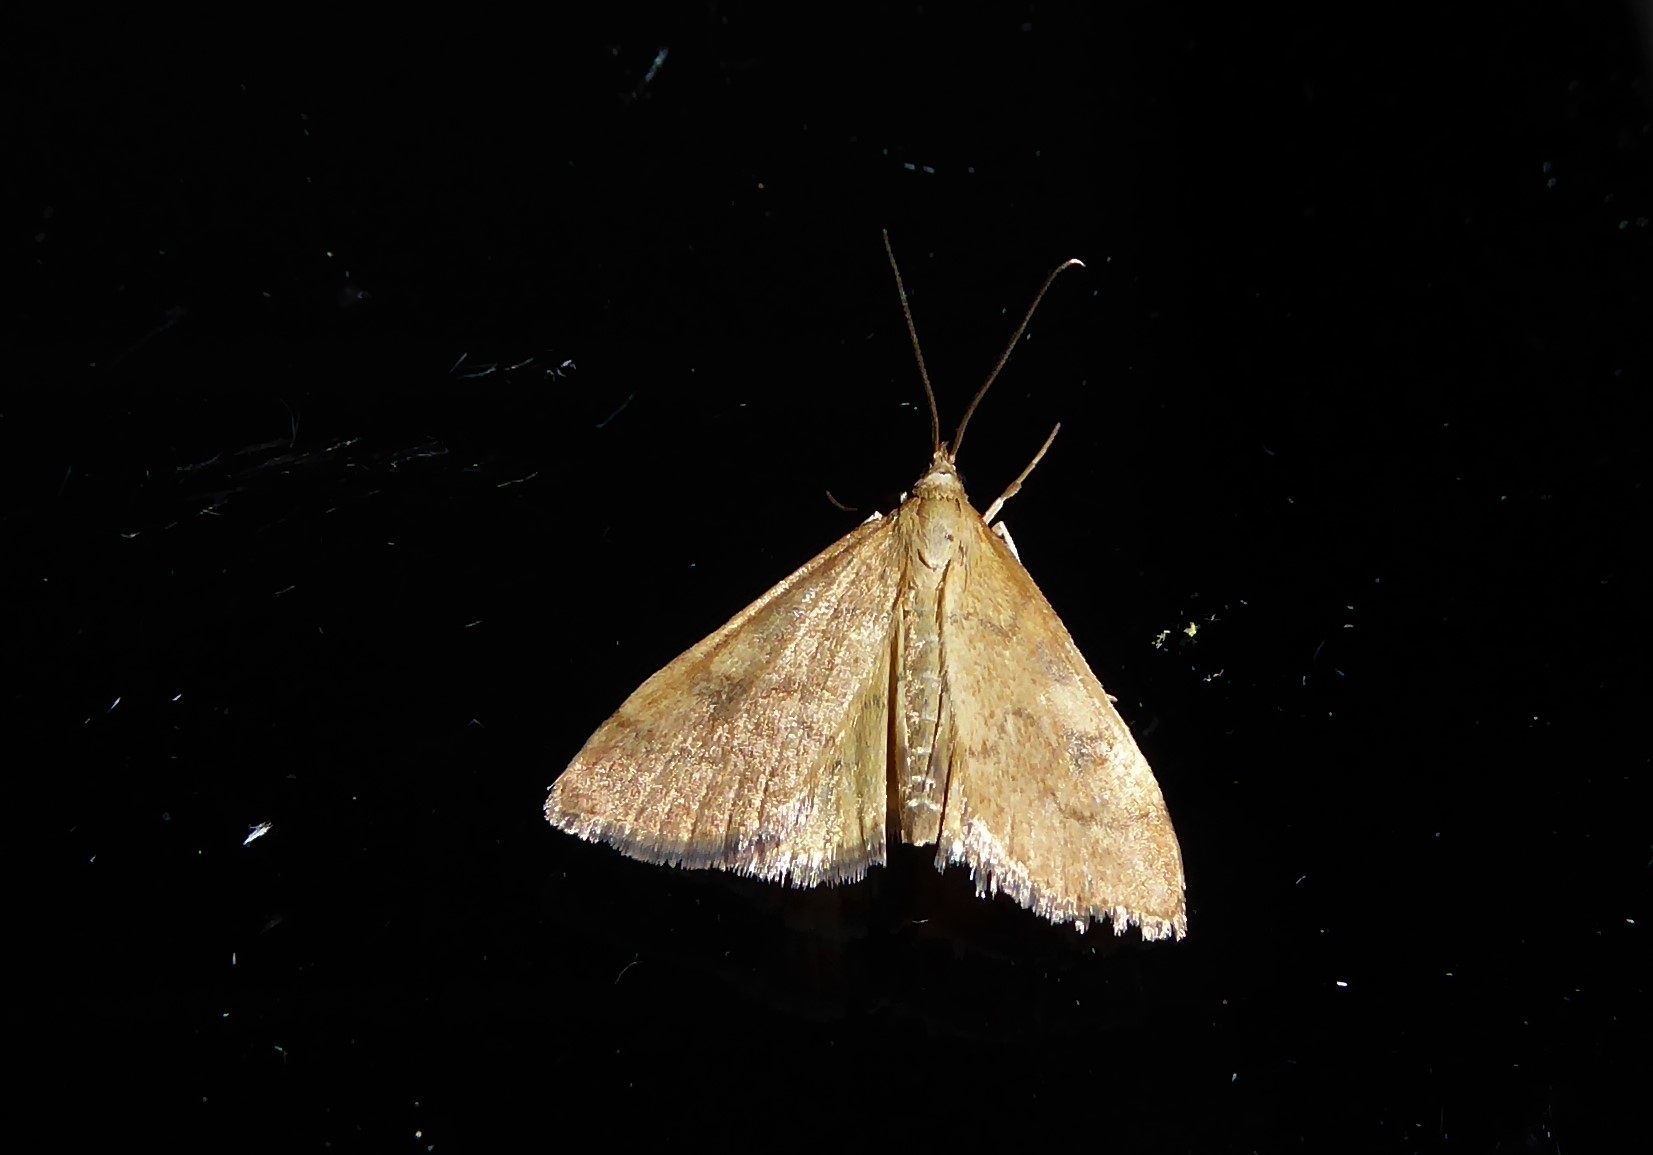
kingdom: Animalia
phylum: Arthropoda
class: Insecta
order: Lepidoptera
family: Crambidae
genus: Udea
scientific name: Udea Mnesictena flavidalis
